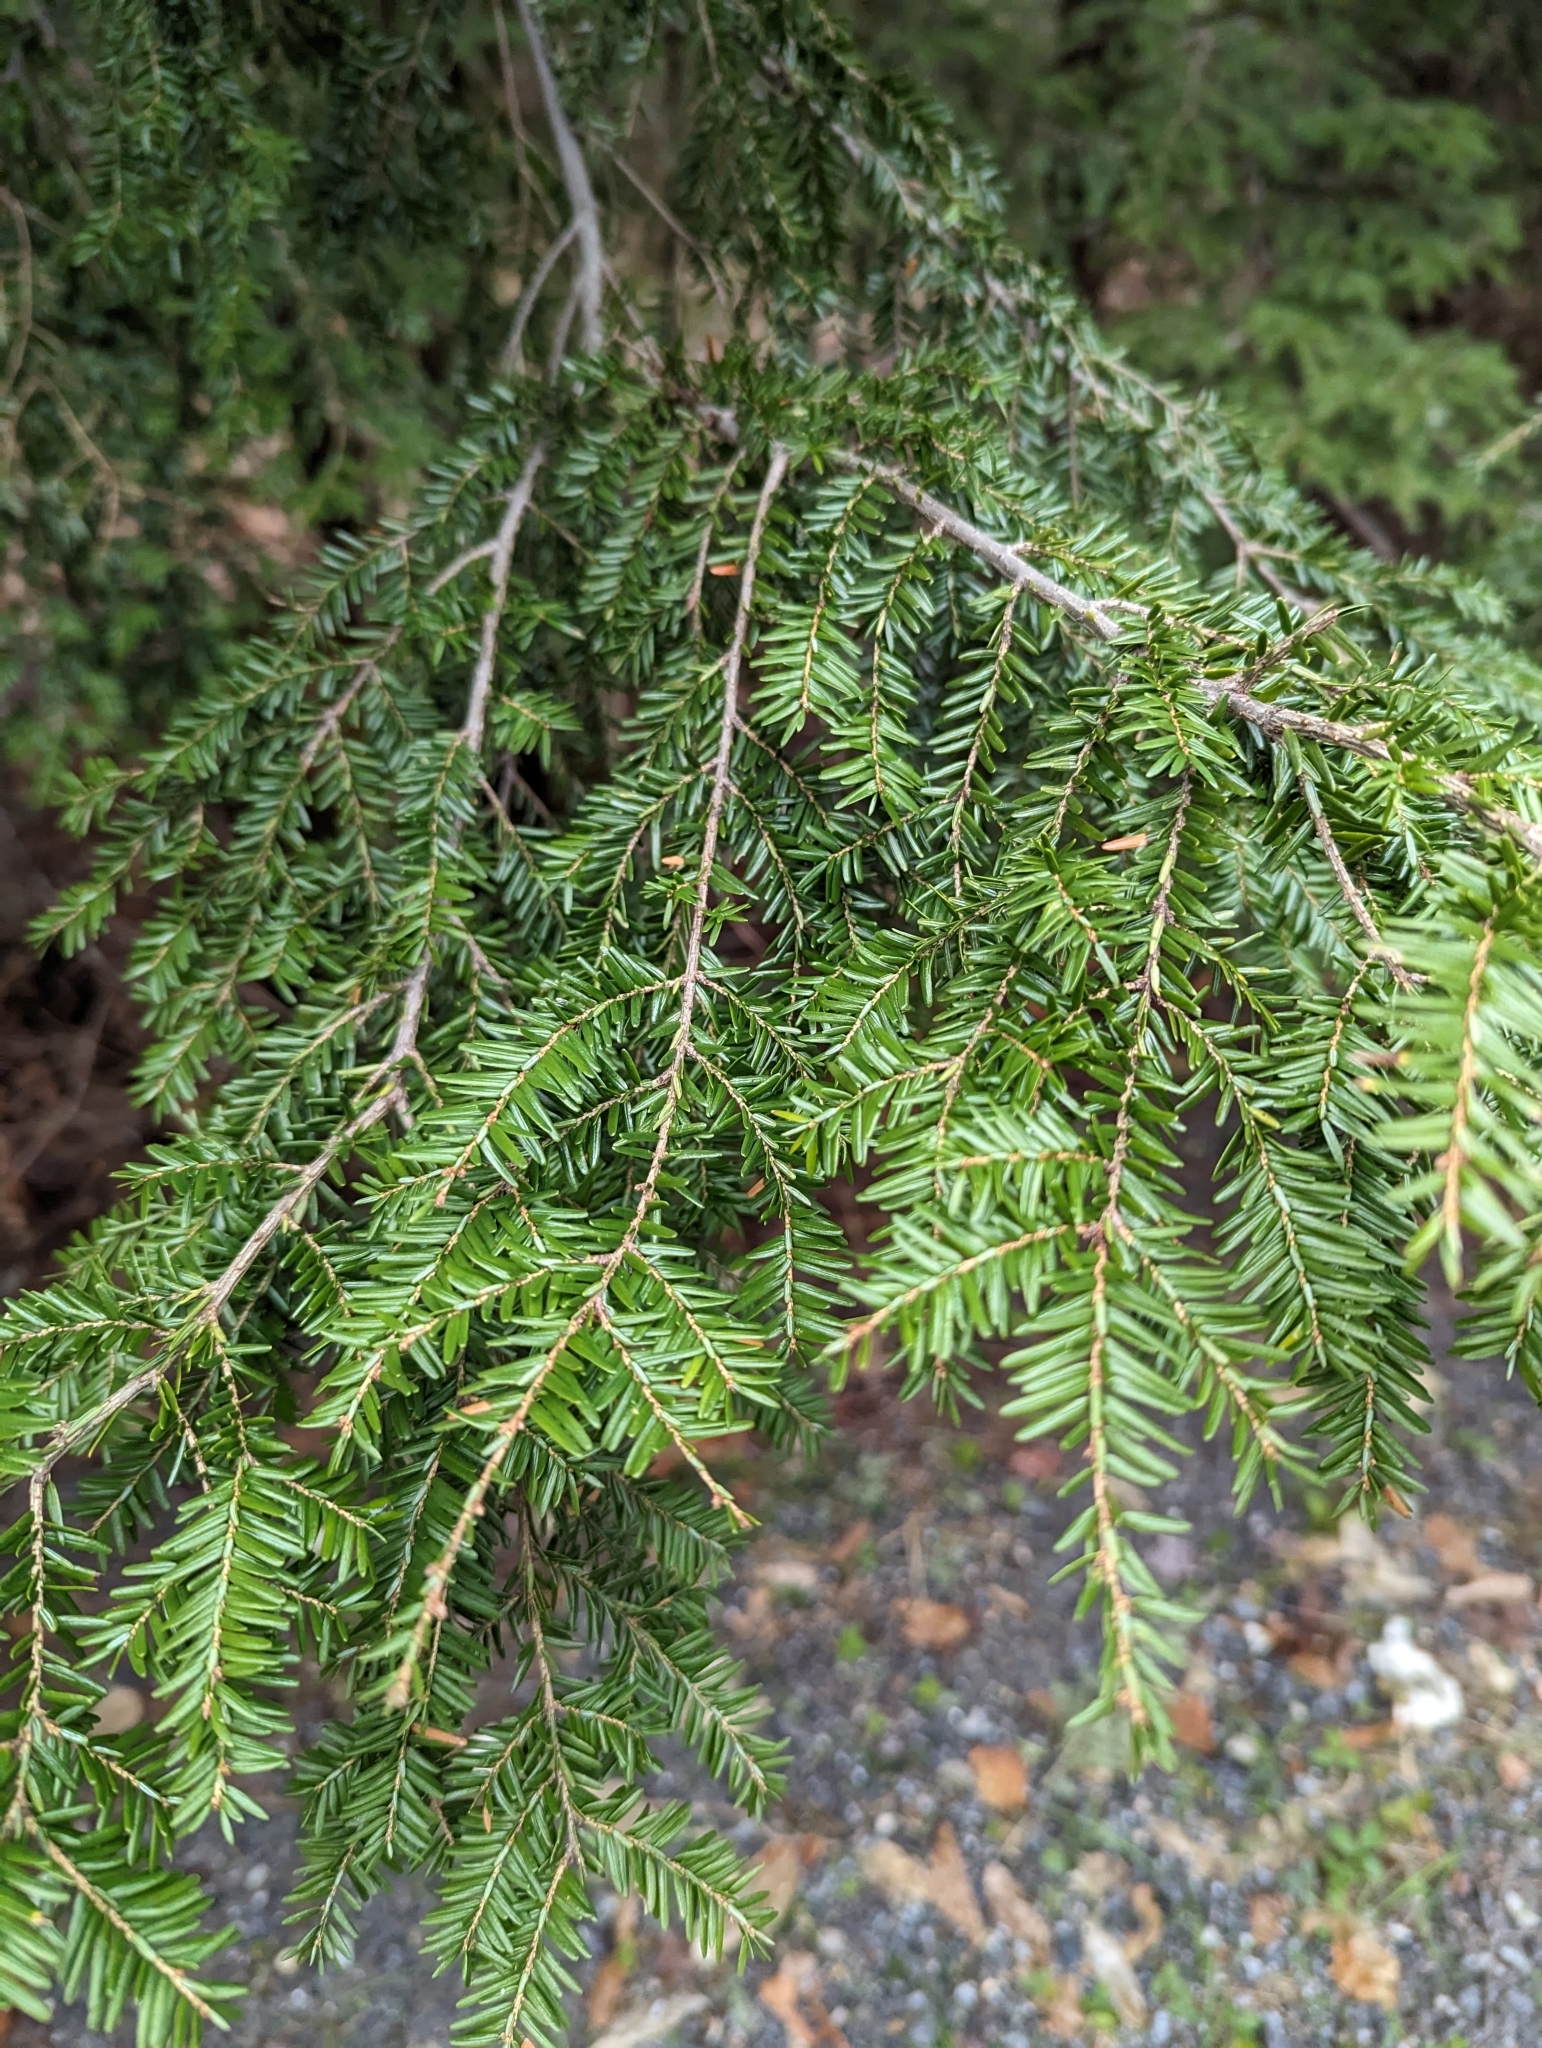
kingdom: Plantae
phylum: Tracheophyta
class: Pinopsida
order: Pinales
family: Pinaceae
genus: Tsuga
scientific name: Tsuga canadensis
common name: Eastern hemlock
